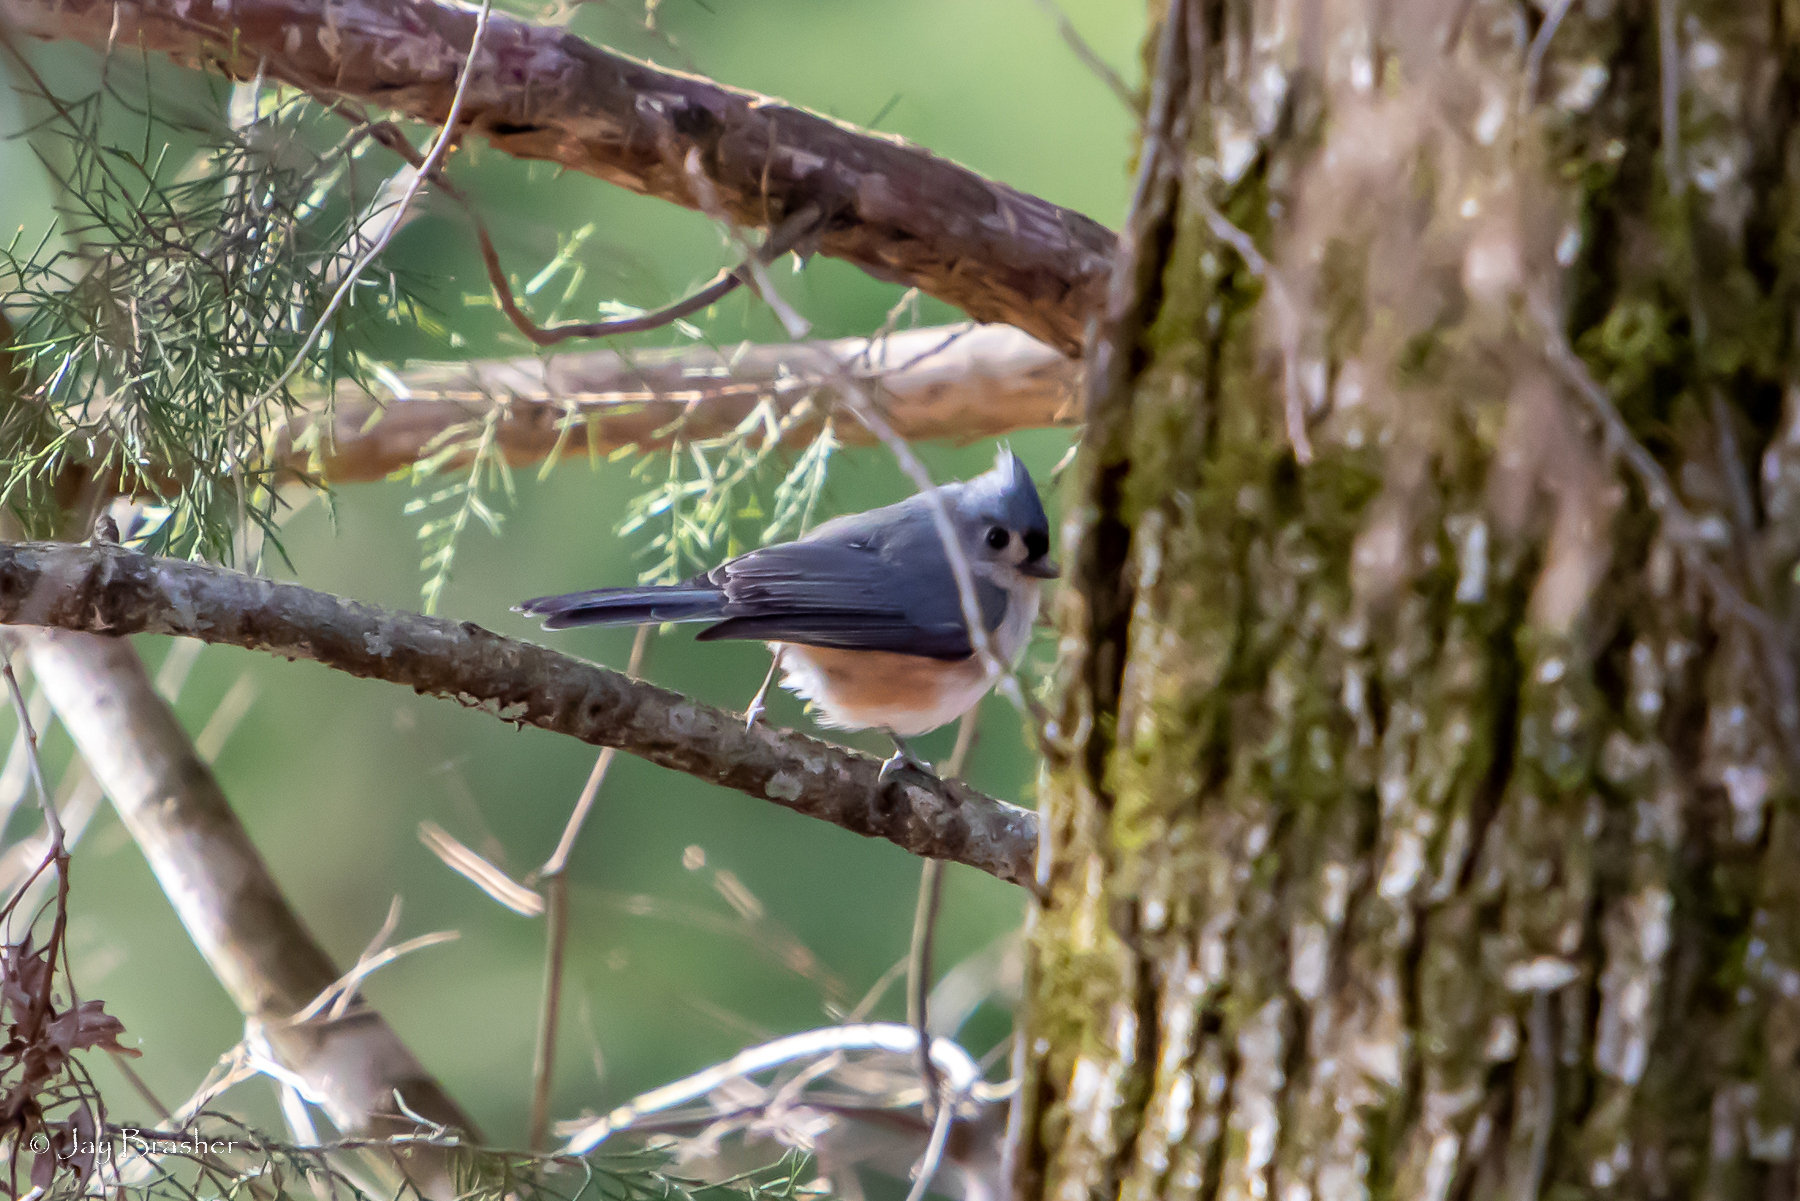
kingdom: Animalia
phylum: Chordata
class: Aves
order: Passeriformes
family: Paridae
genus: Baeolophus
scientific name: Baeolophus bicolor
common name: Tufted titmouse
